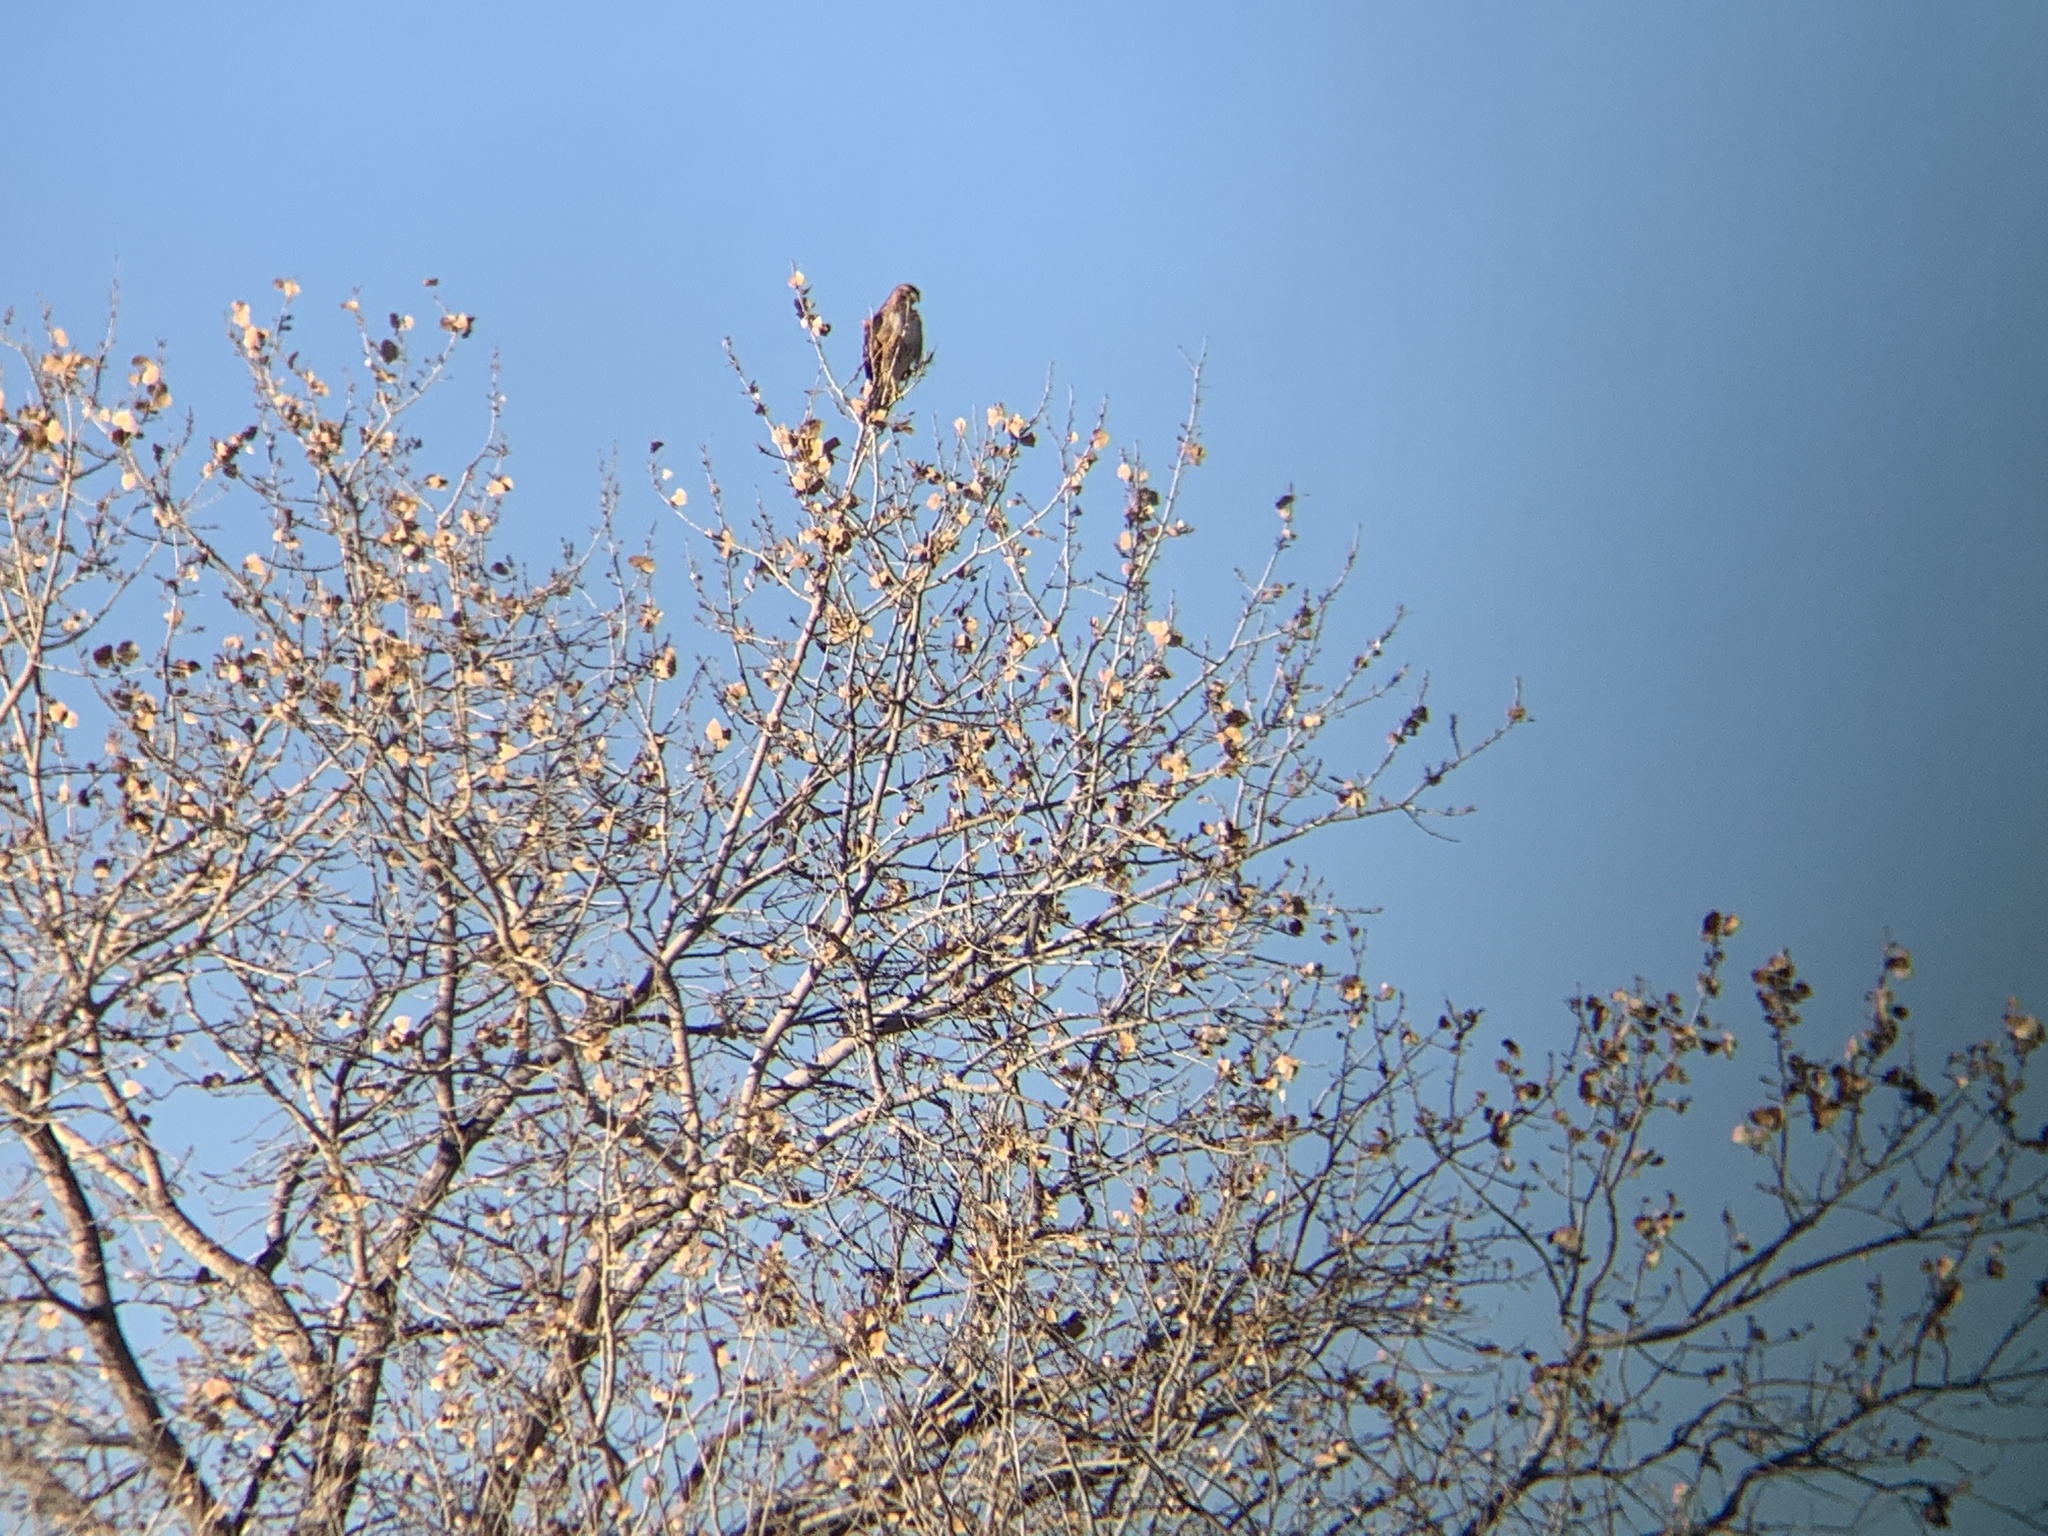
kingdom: Animalia
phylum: Chordata
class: Aves
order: Accipitriformes
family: Accipitridae
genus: Buteo
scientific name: Buteo jamaicensis
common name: Red-tailed hawk
